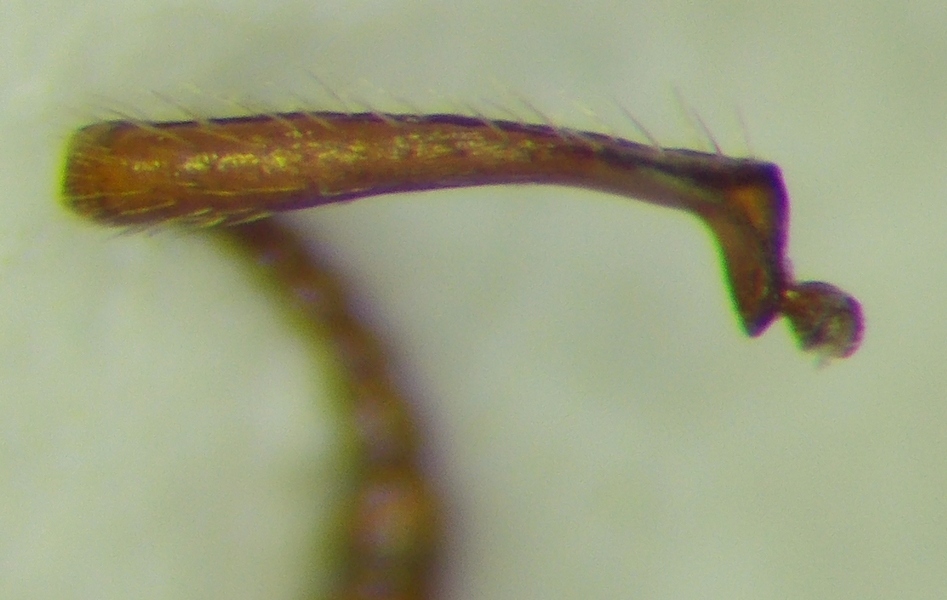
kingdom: Animalia
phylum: Arthropoda
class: Insecta
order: Hymenoptera
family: Formicidae
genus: Myrmica
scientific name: Myrmica sabuleti
